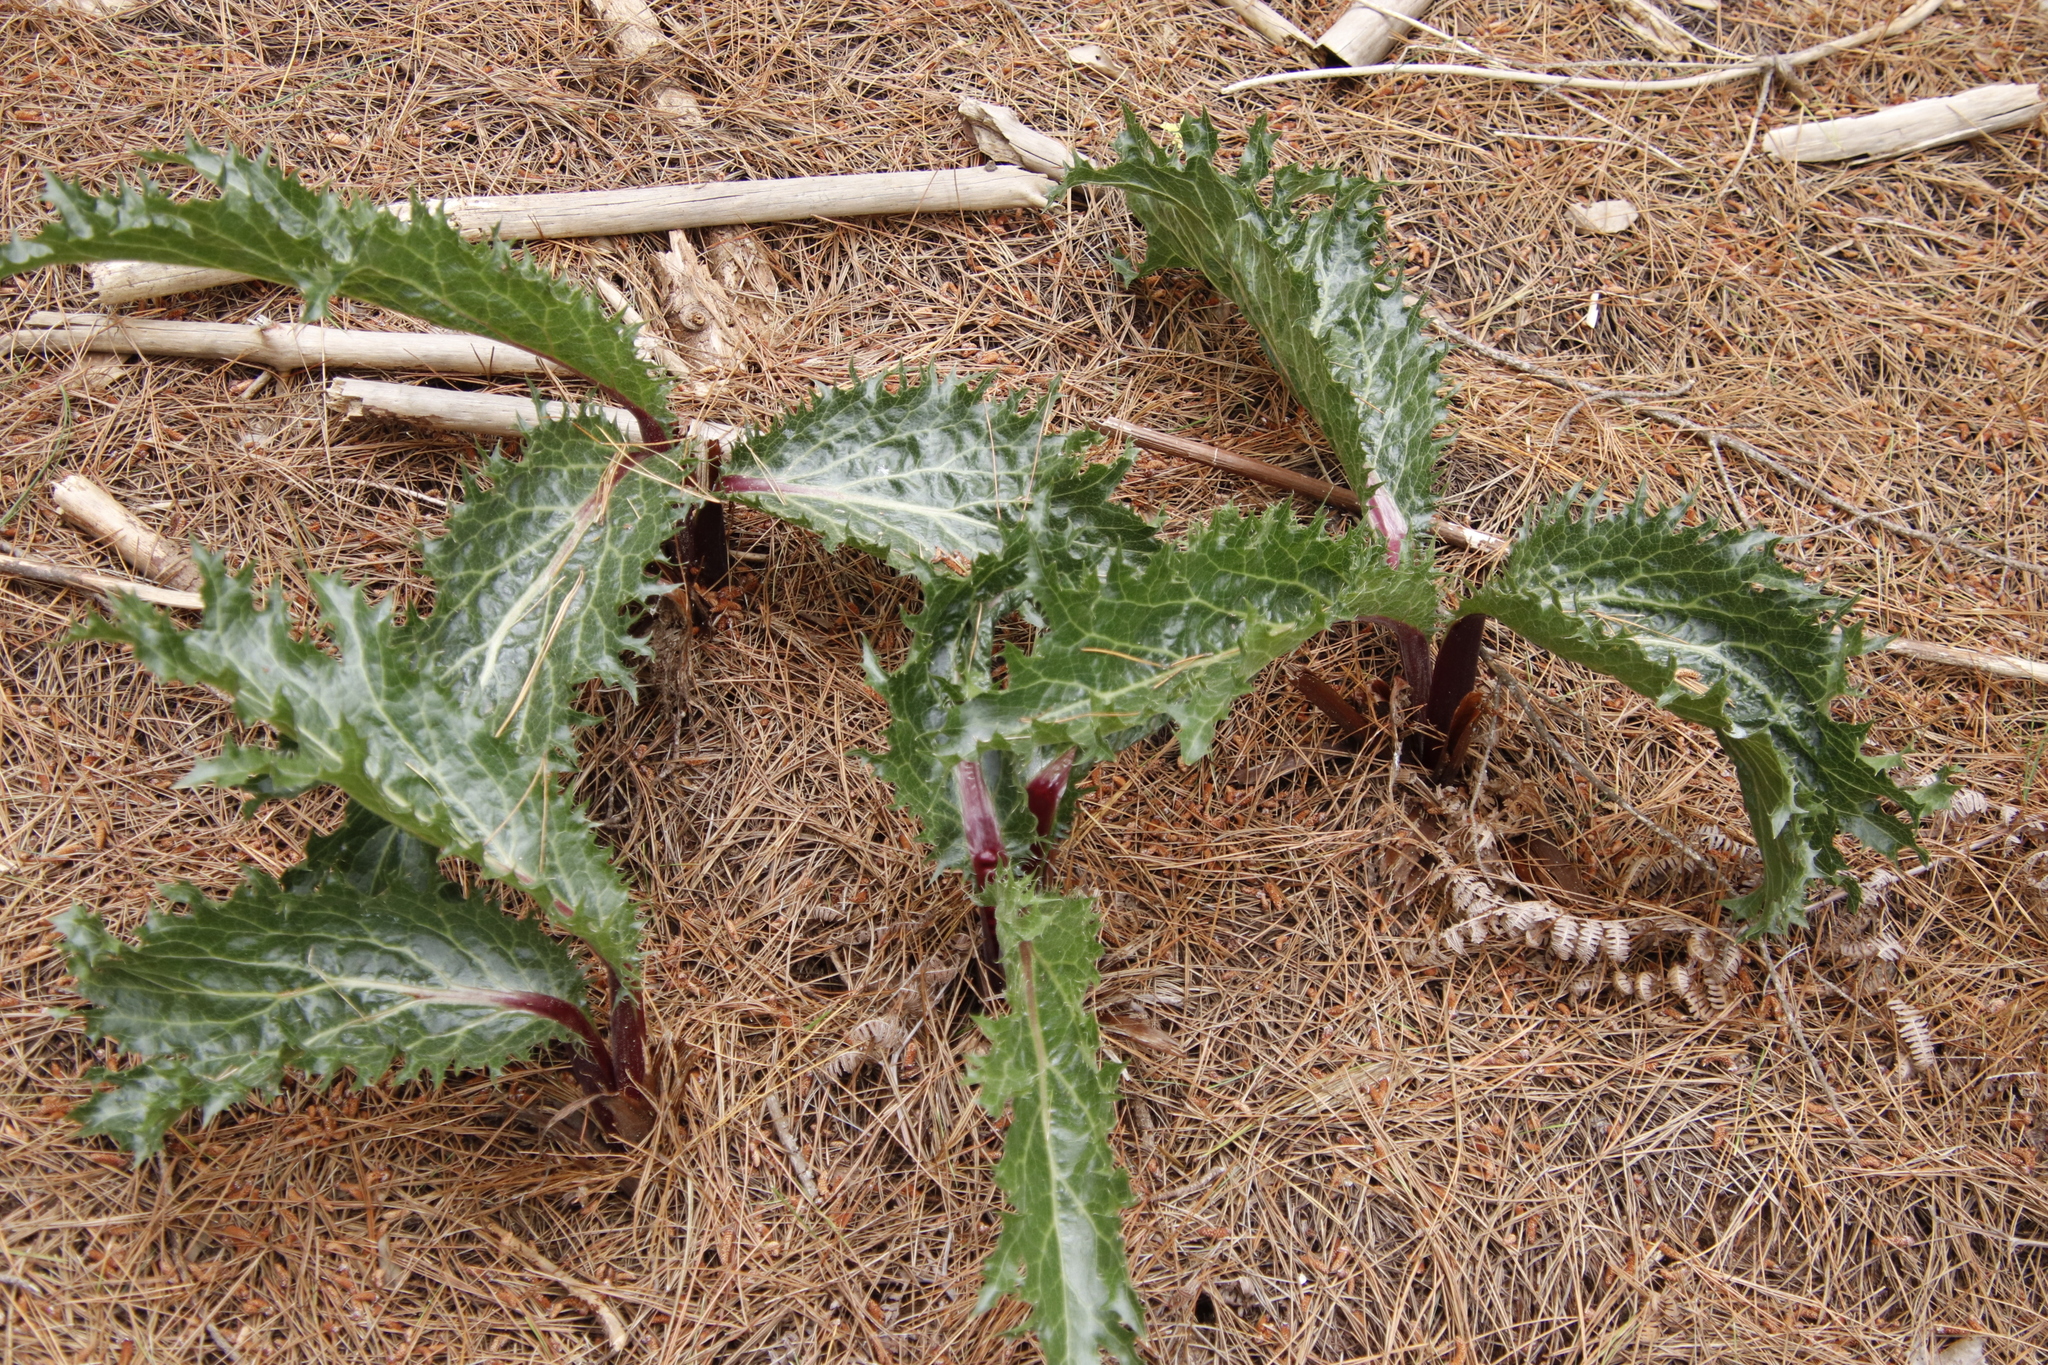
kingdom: Plantae
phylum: Tracheophyta
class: Magnoliopsida
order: Apiales
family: Apiaceae
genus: Lichtensteinia
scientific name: Lichtensteinia lacera
